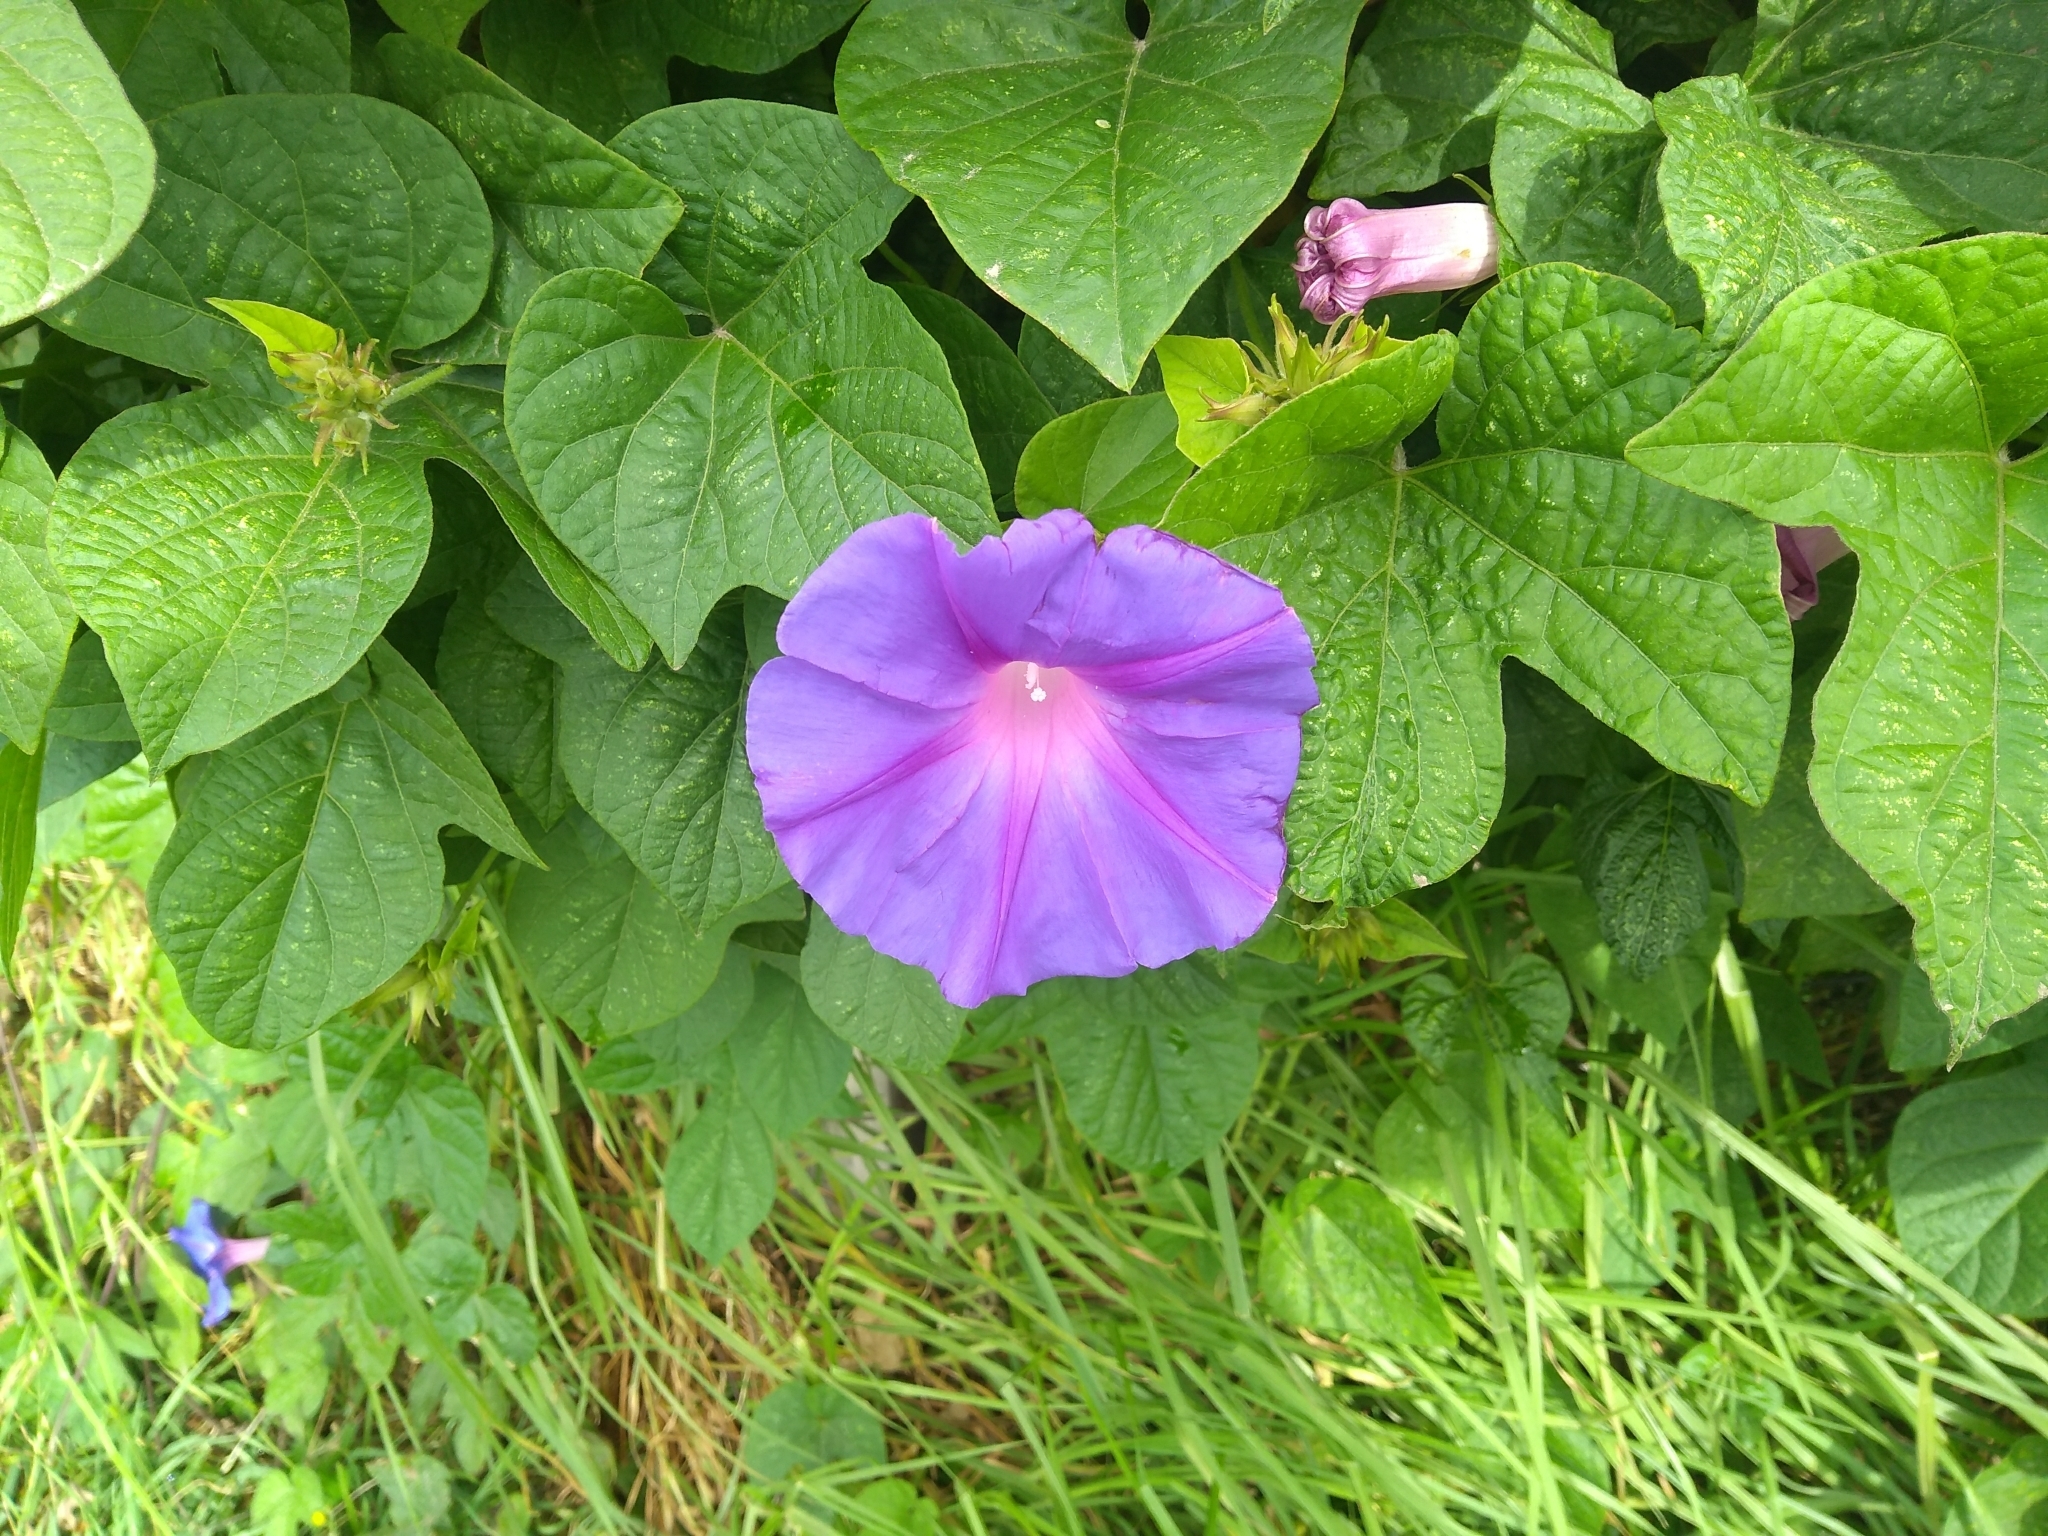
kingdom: Plantae
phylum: Tracheophyta
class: Magnoliopsida
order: Solanales
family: Convolvulaceae
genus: Ipomoea
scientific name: Ipomoea indica
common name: Blue dawnflower
